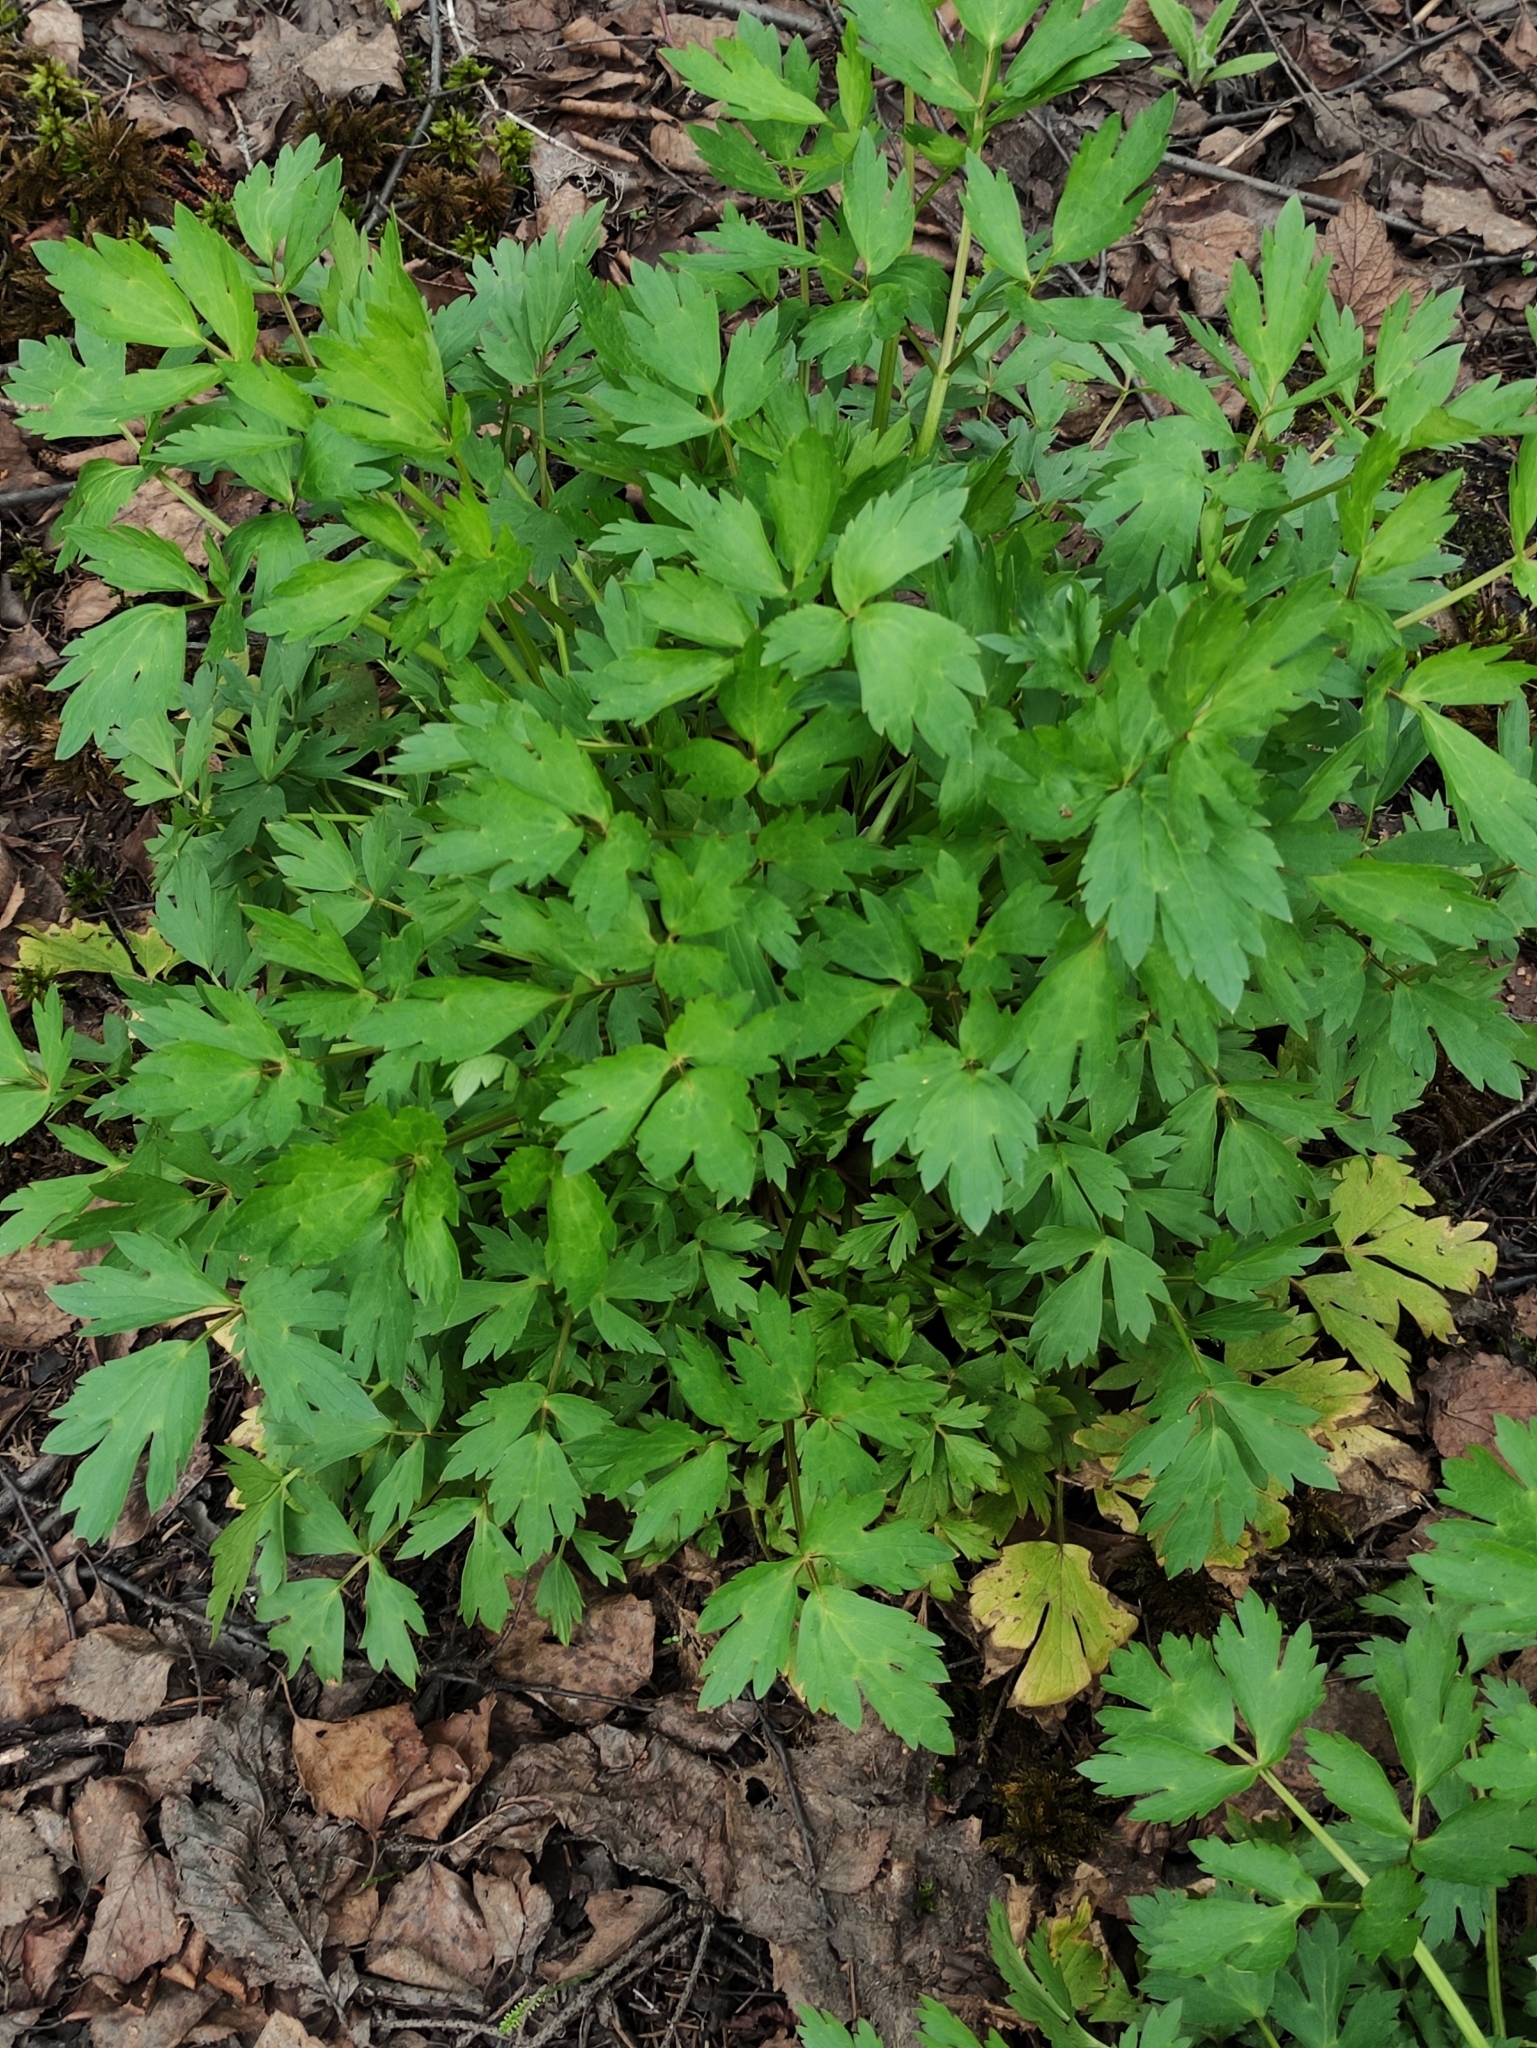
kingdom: Plantae
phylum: Tracheophyta
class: Magnoliopsida
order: Ranunculales
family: Ranunculaceae
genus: Ranunculus
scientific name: Ranunculus repens
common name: Creeping buttercup
